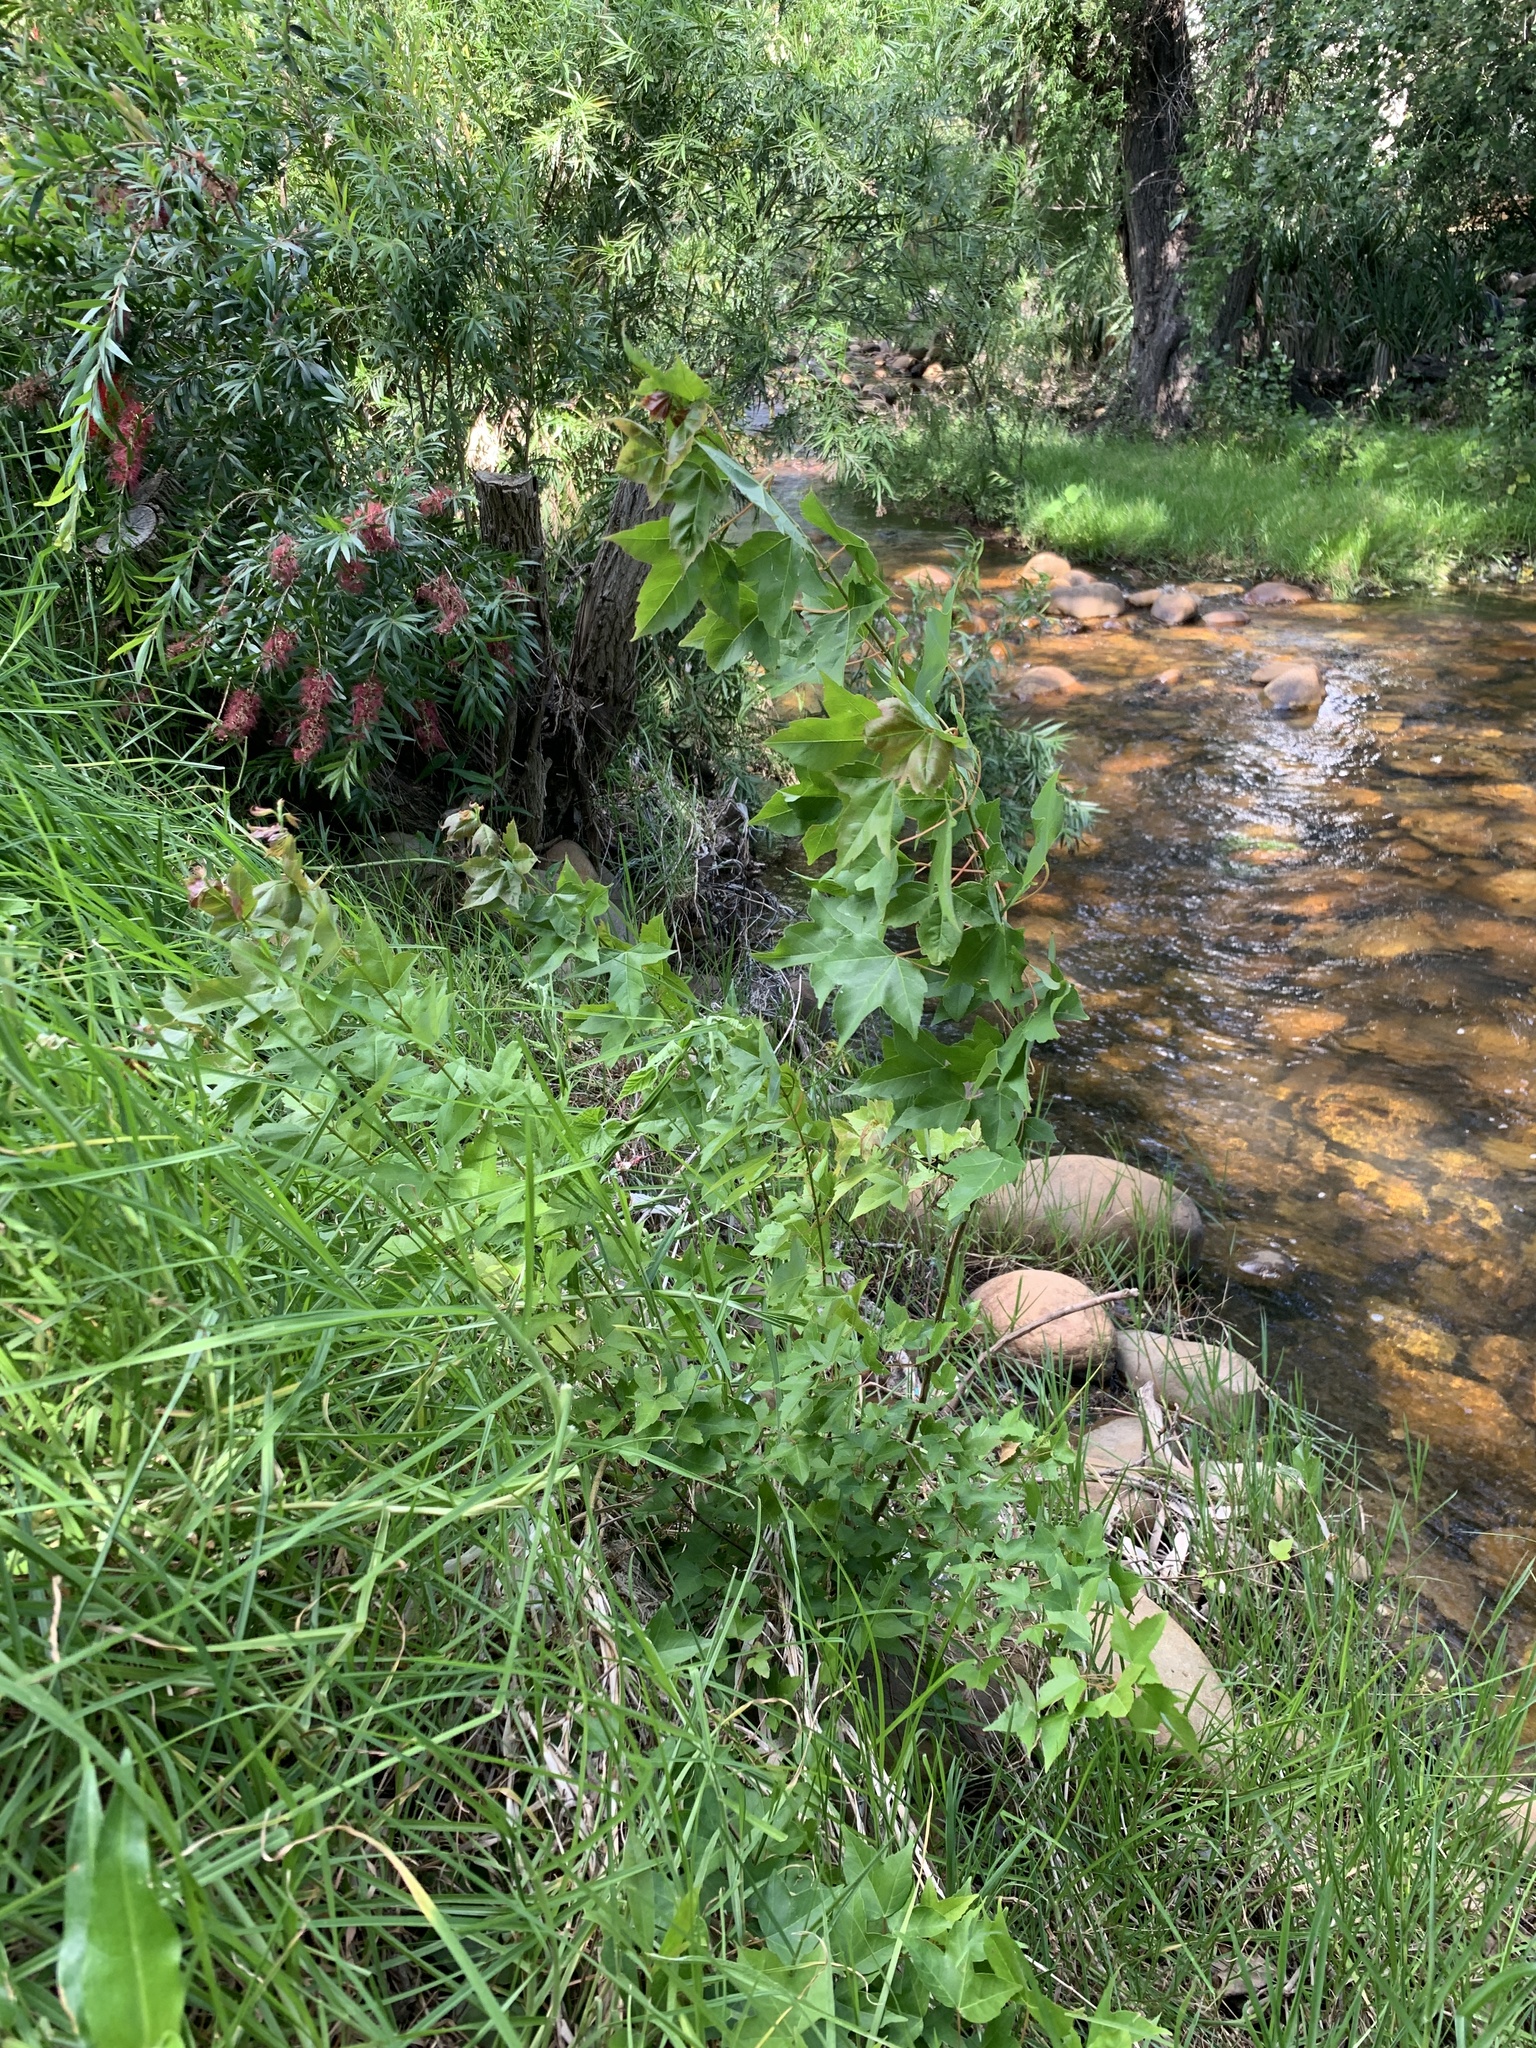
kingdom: Plantae
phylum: Tracheophyta
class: Magnoliopsida
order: Sapindales
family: Sapindaceae
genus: Acer
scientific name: Acer buergerianum
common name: Trident maple
